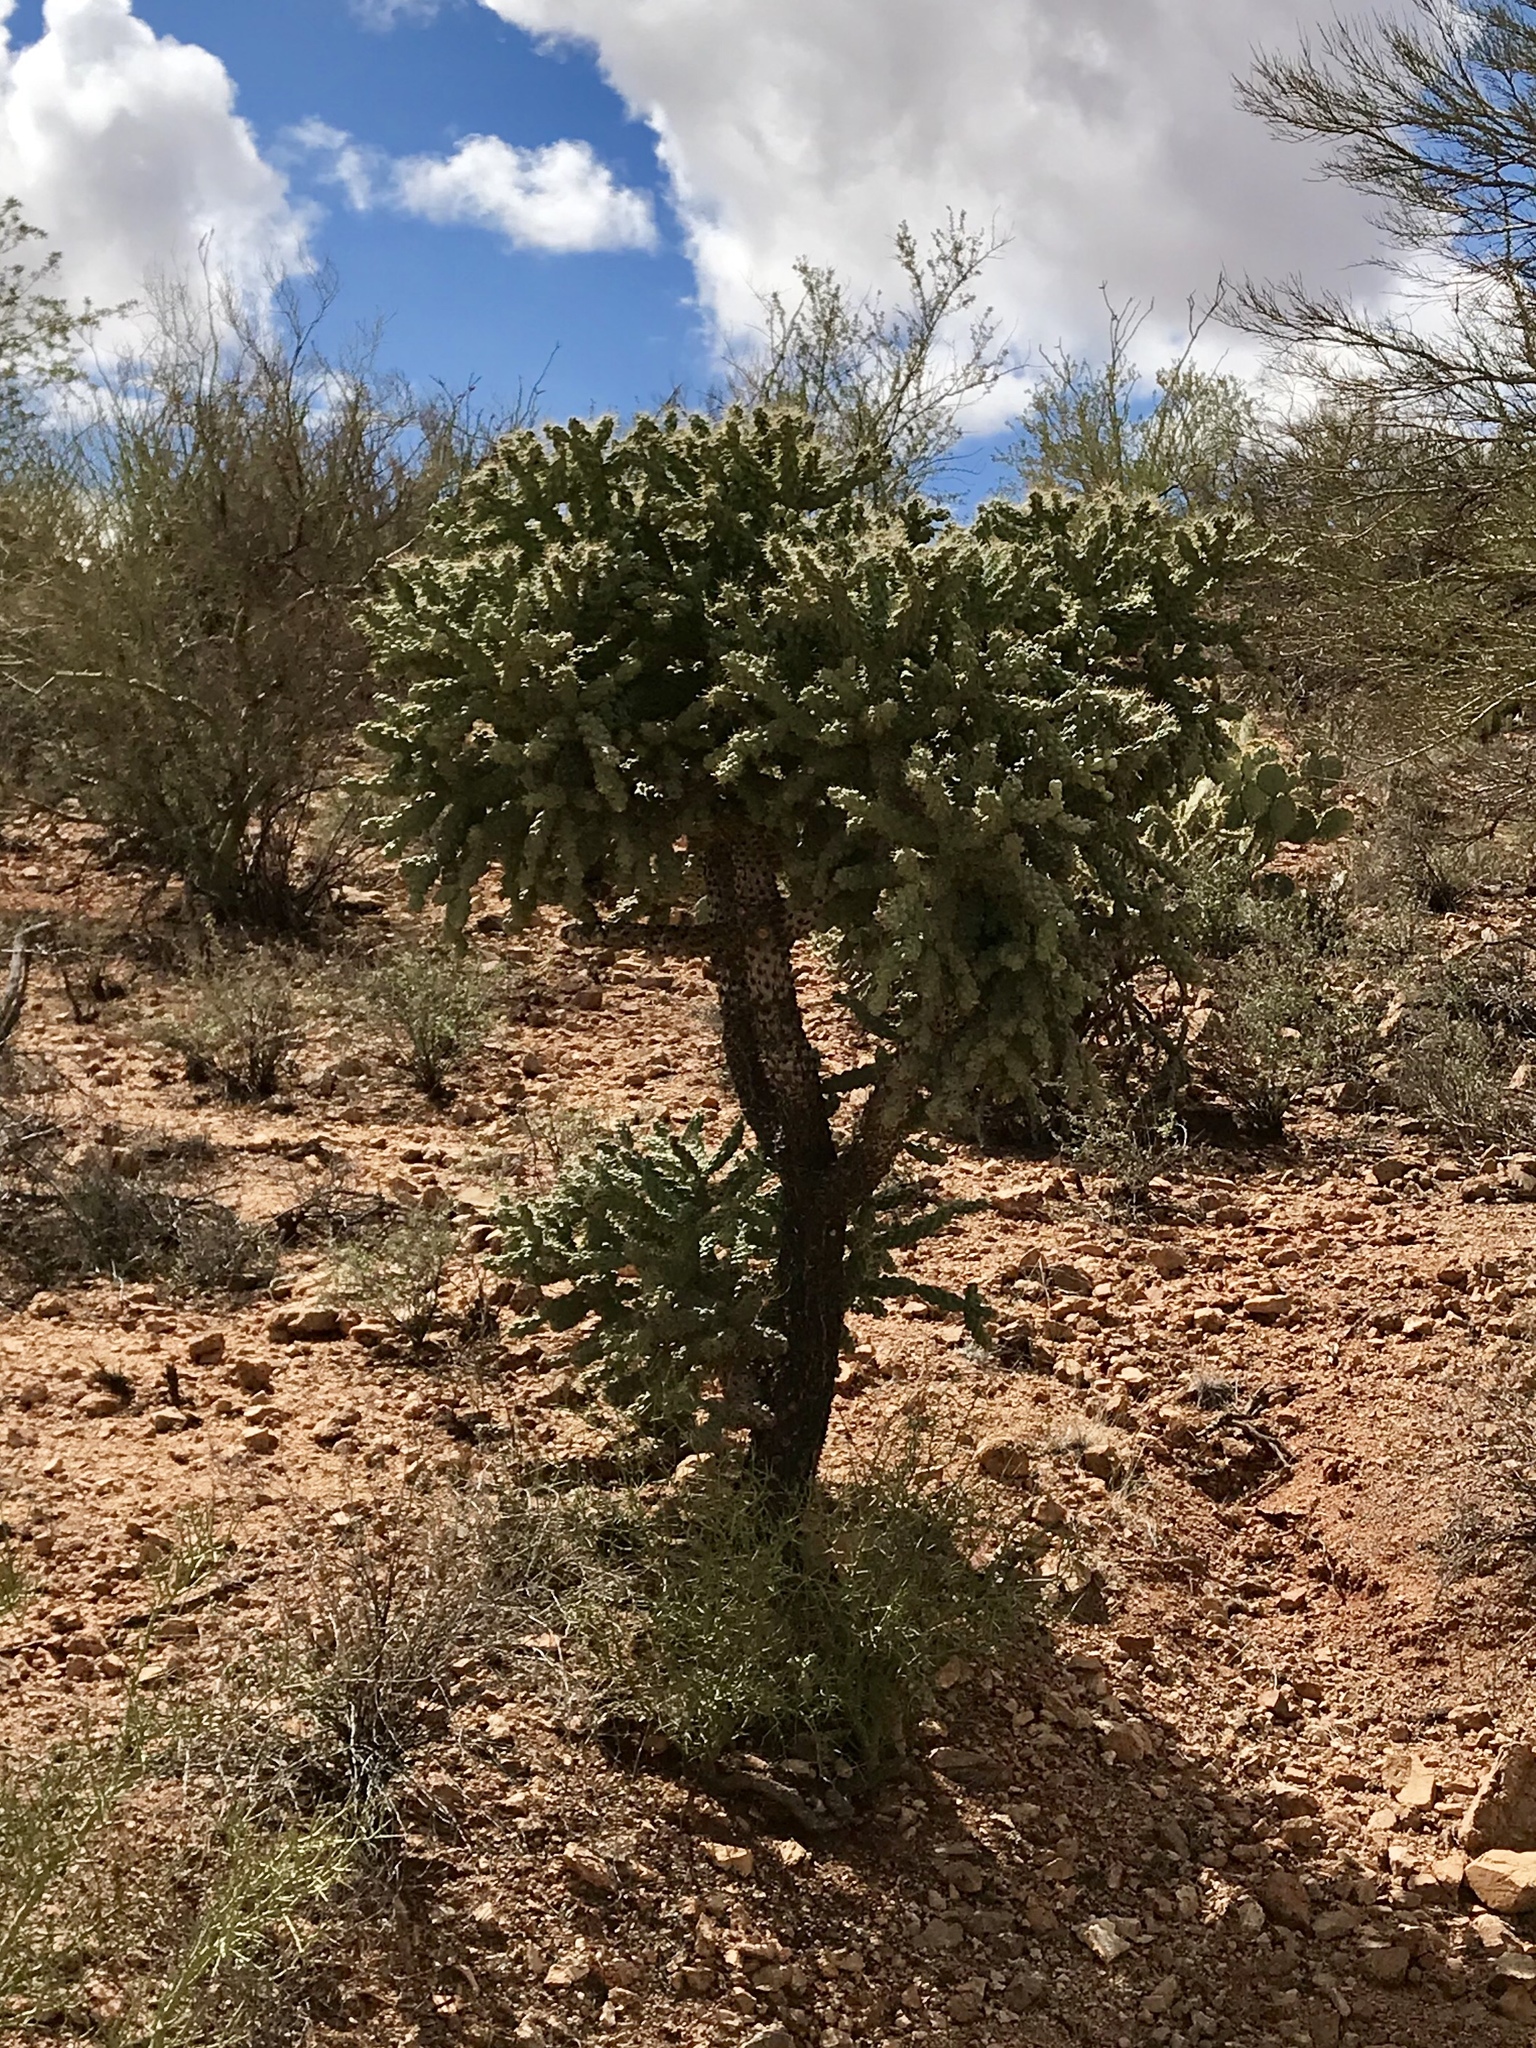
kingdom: Plantae
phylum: Tracheophyta
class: Magnoliopsida
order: Caryophyllales
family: Cactaceae
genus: Cylindropuntia
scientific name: Cylindropuntia fulgida
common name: Jumping cholla
